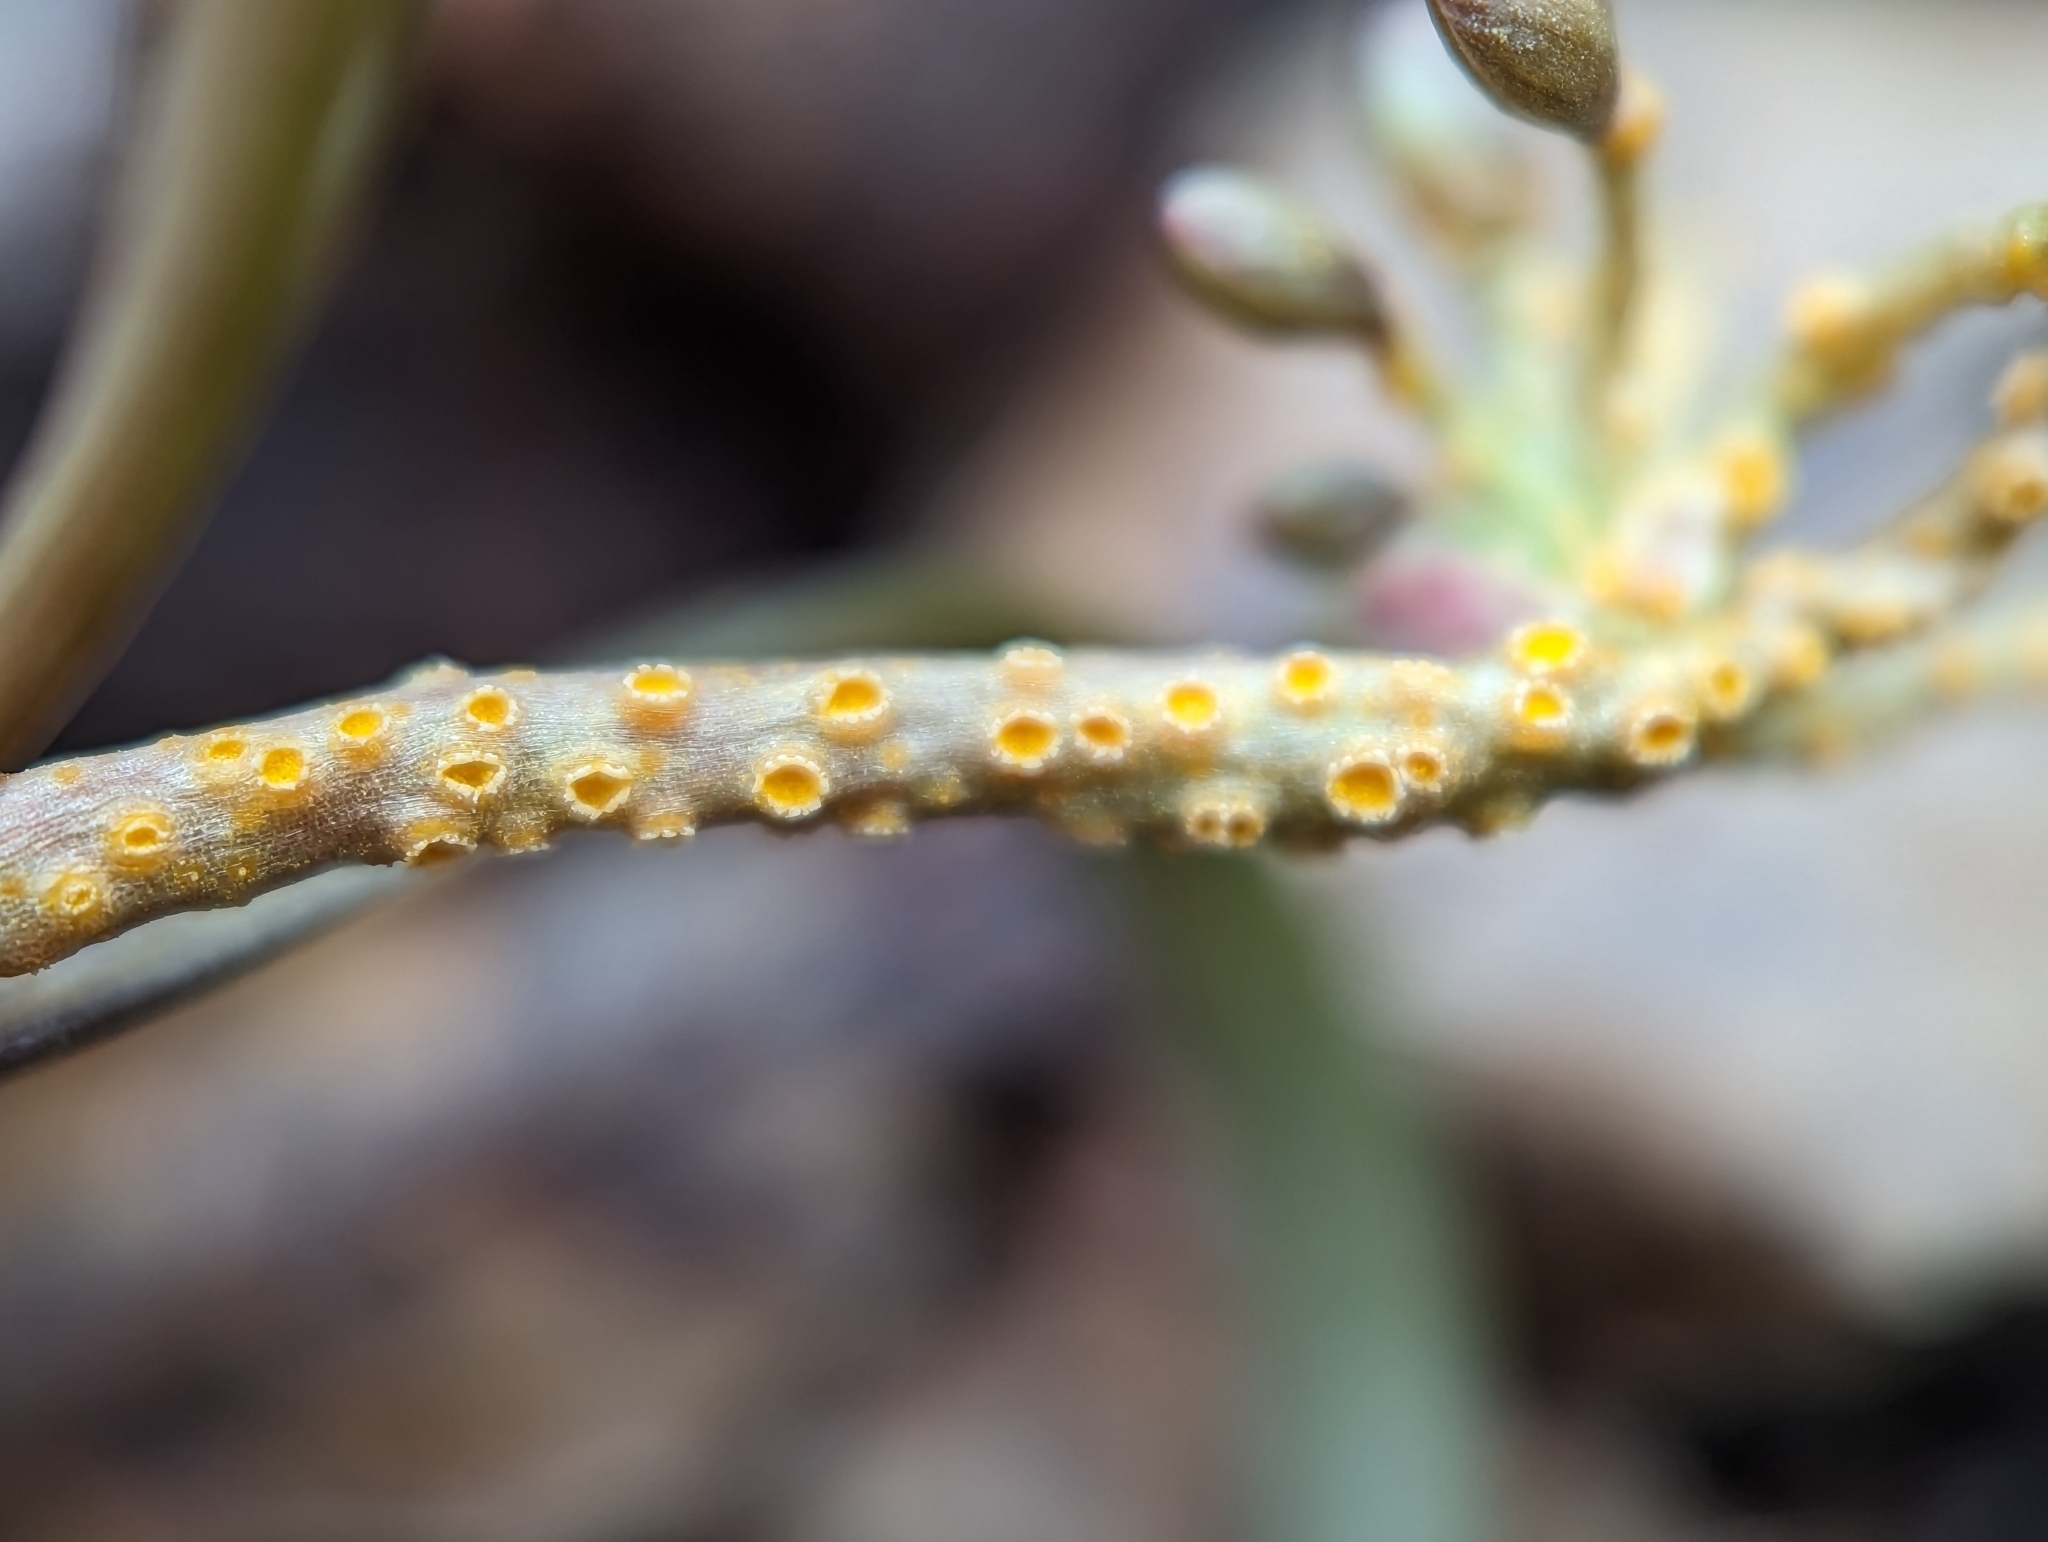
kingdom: Fungi
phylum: Basidiomycota
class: Pucciniomycetes
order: Pucciniales
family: Pucciniaceae
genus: Puccinia
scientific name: Puccinia mariae-wilsoniae
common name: Spring beauty rust
